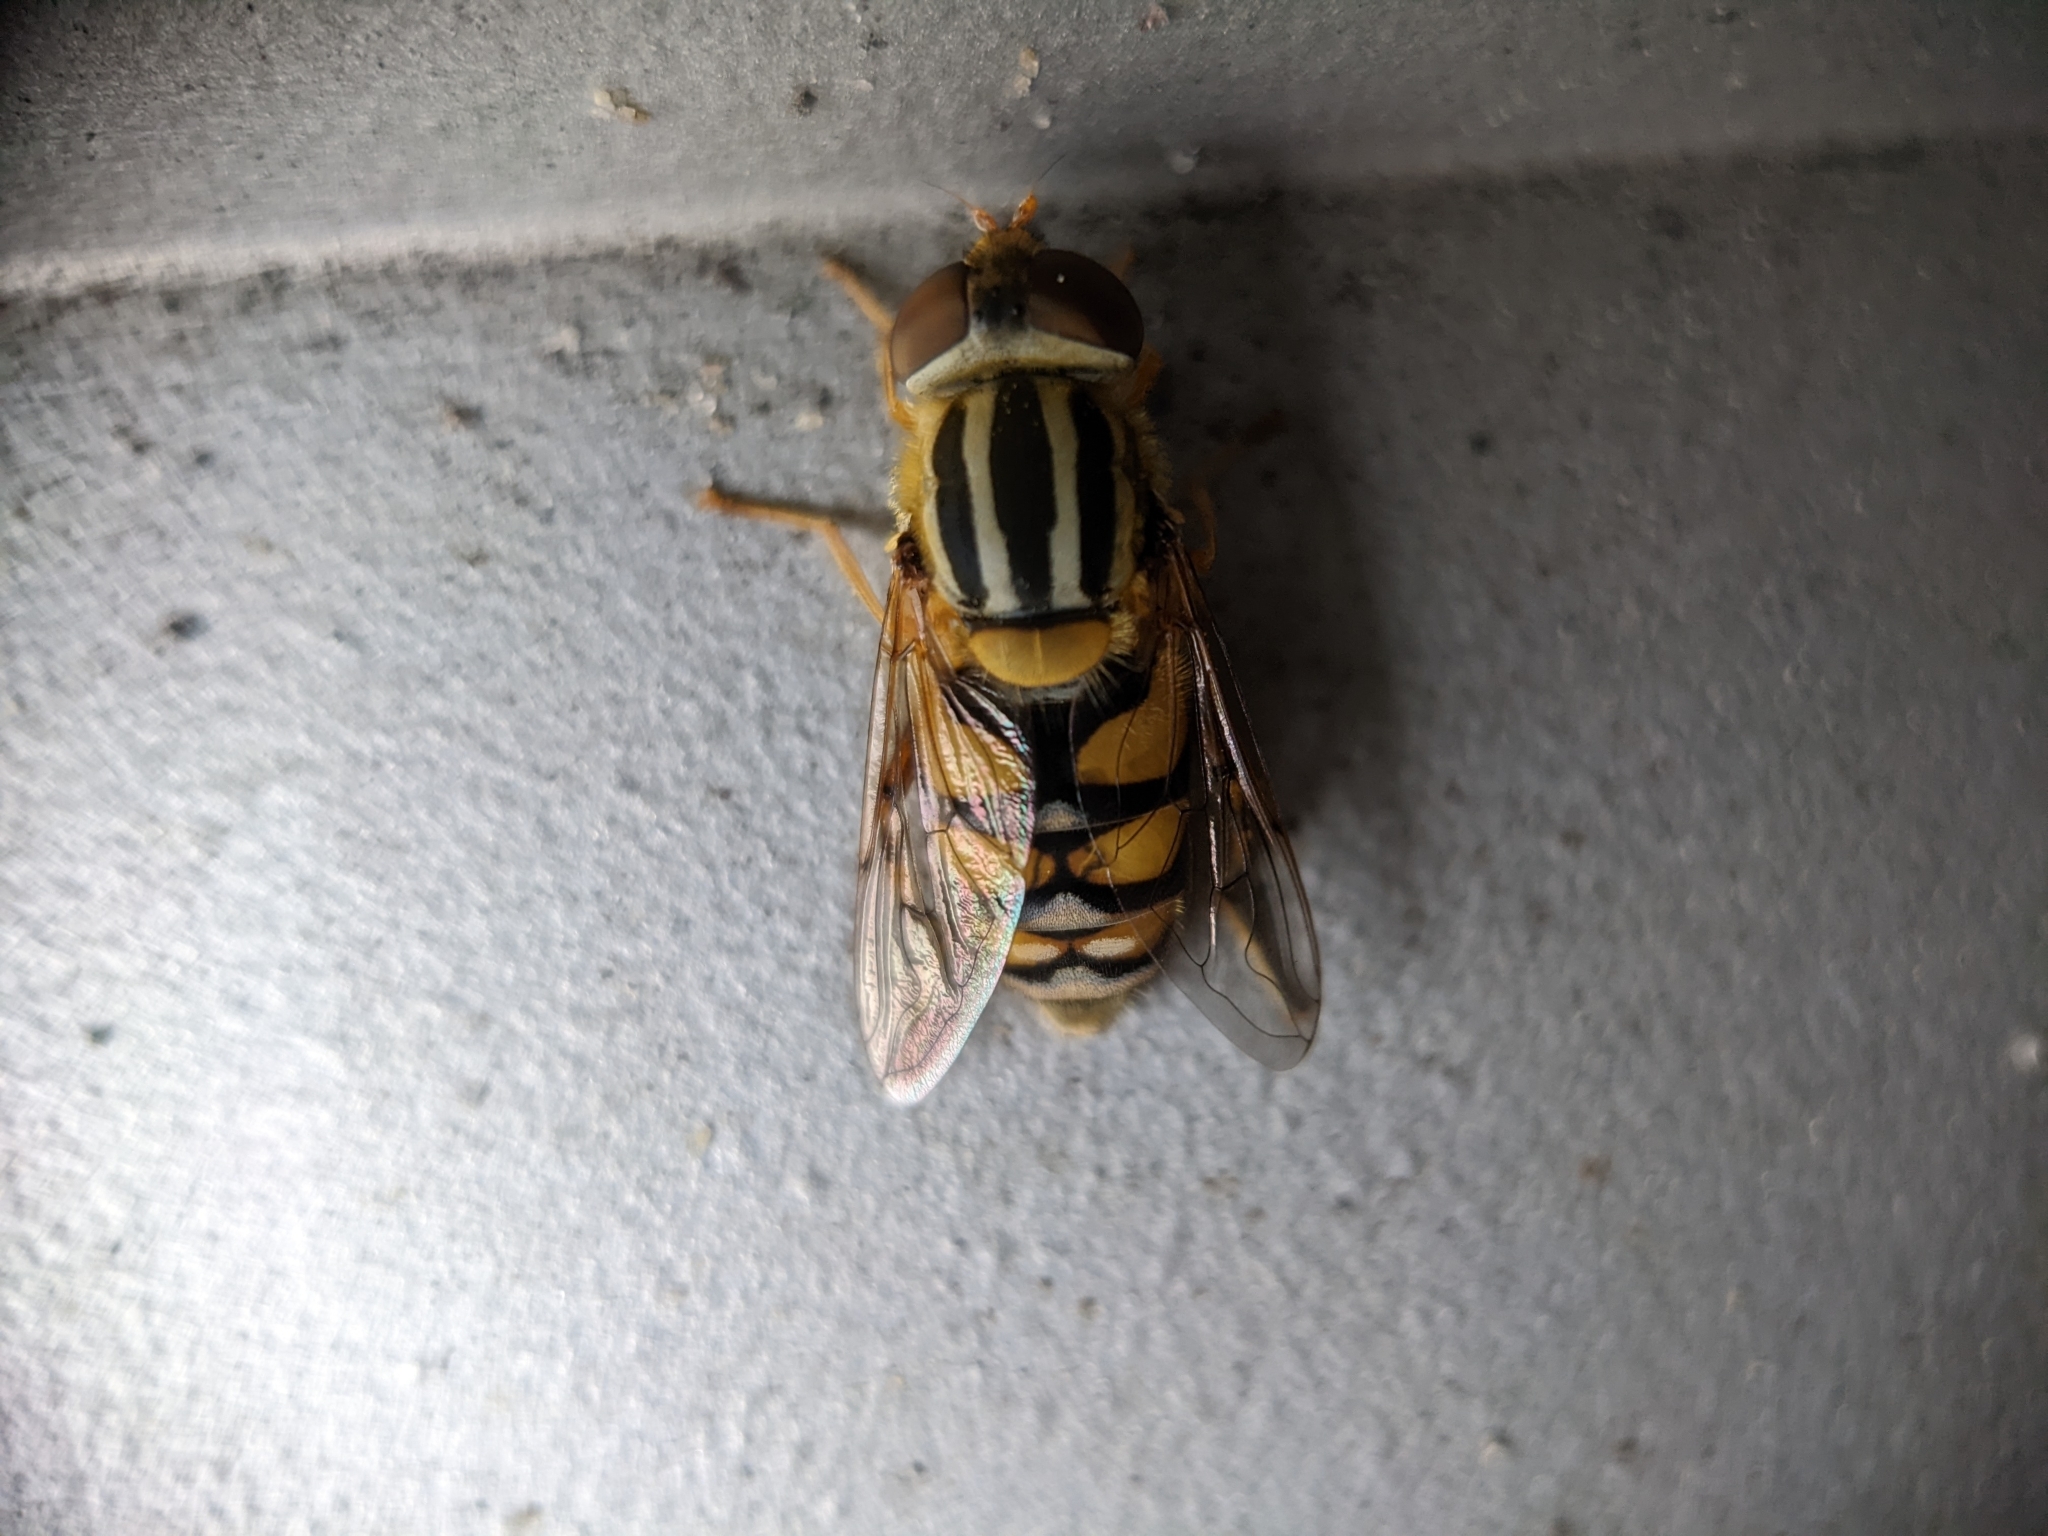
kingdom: Animalia
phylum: Arthropoda
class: Insecta
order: Diptera
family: Syrphidae
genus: Parhelophilus
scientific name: Parhelophilus integer
